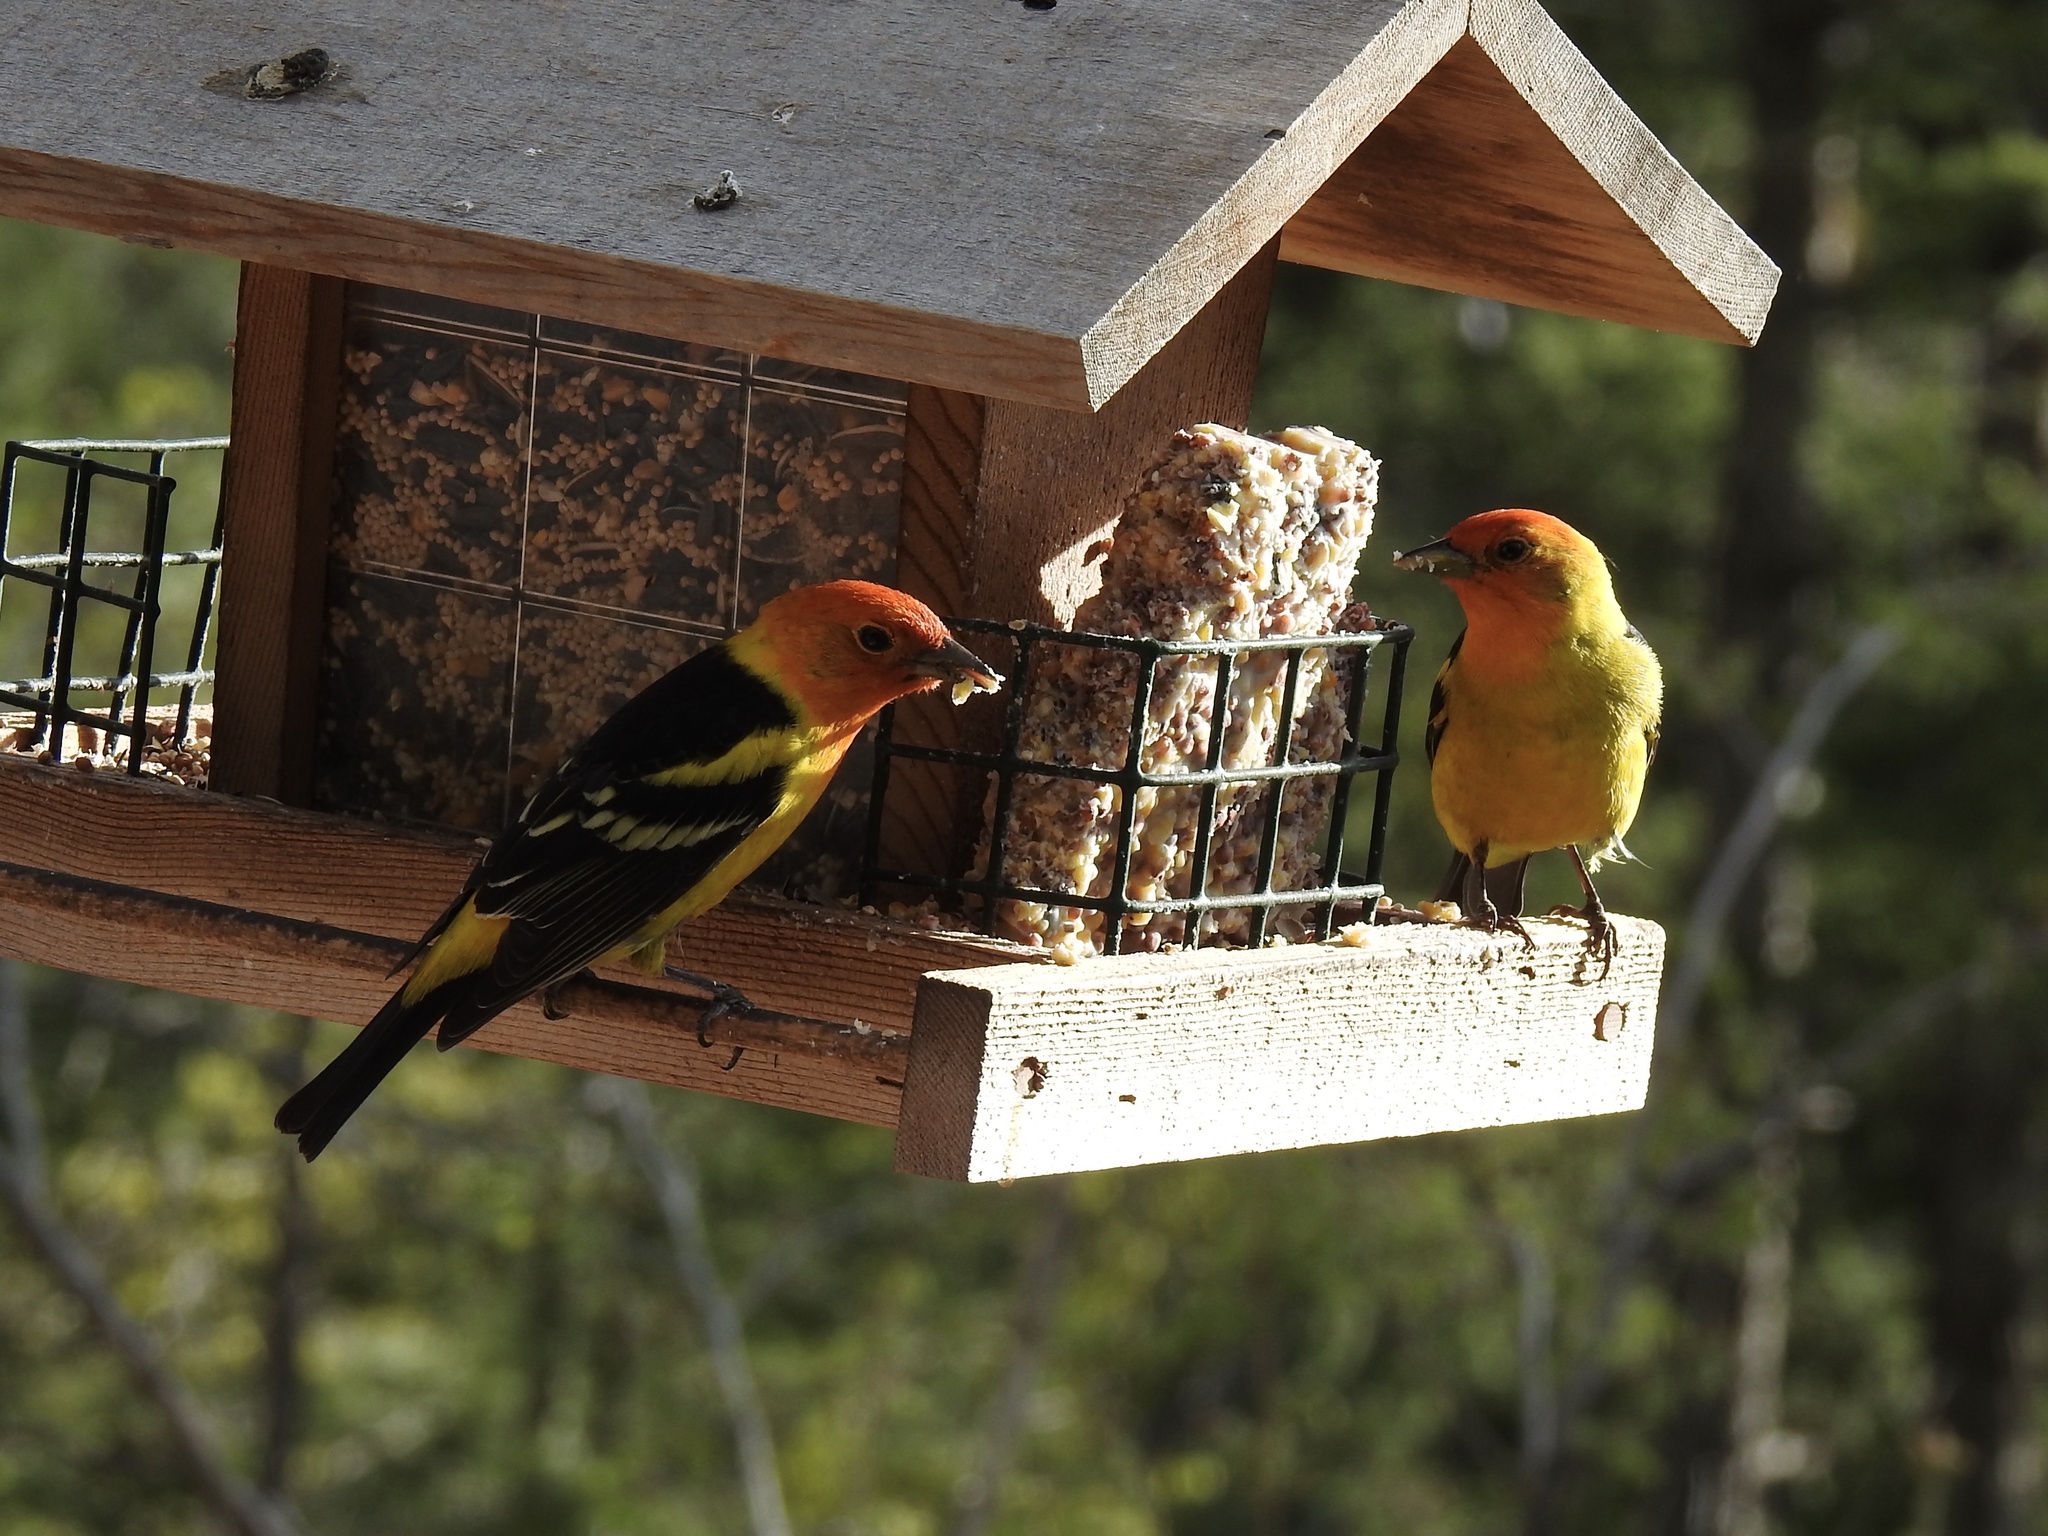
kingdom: Animalia
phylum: Chordata
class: Aves
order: Passeriformes
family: Cardinalidae
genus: Piranga
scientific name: Piranga ludoviciana
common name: Western tanager
